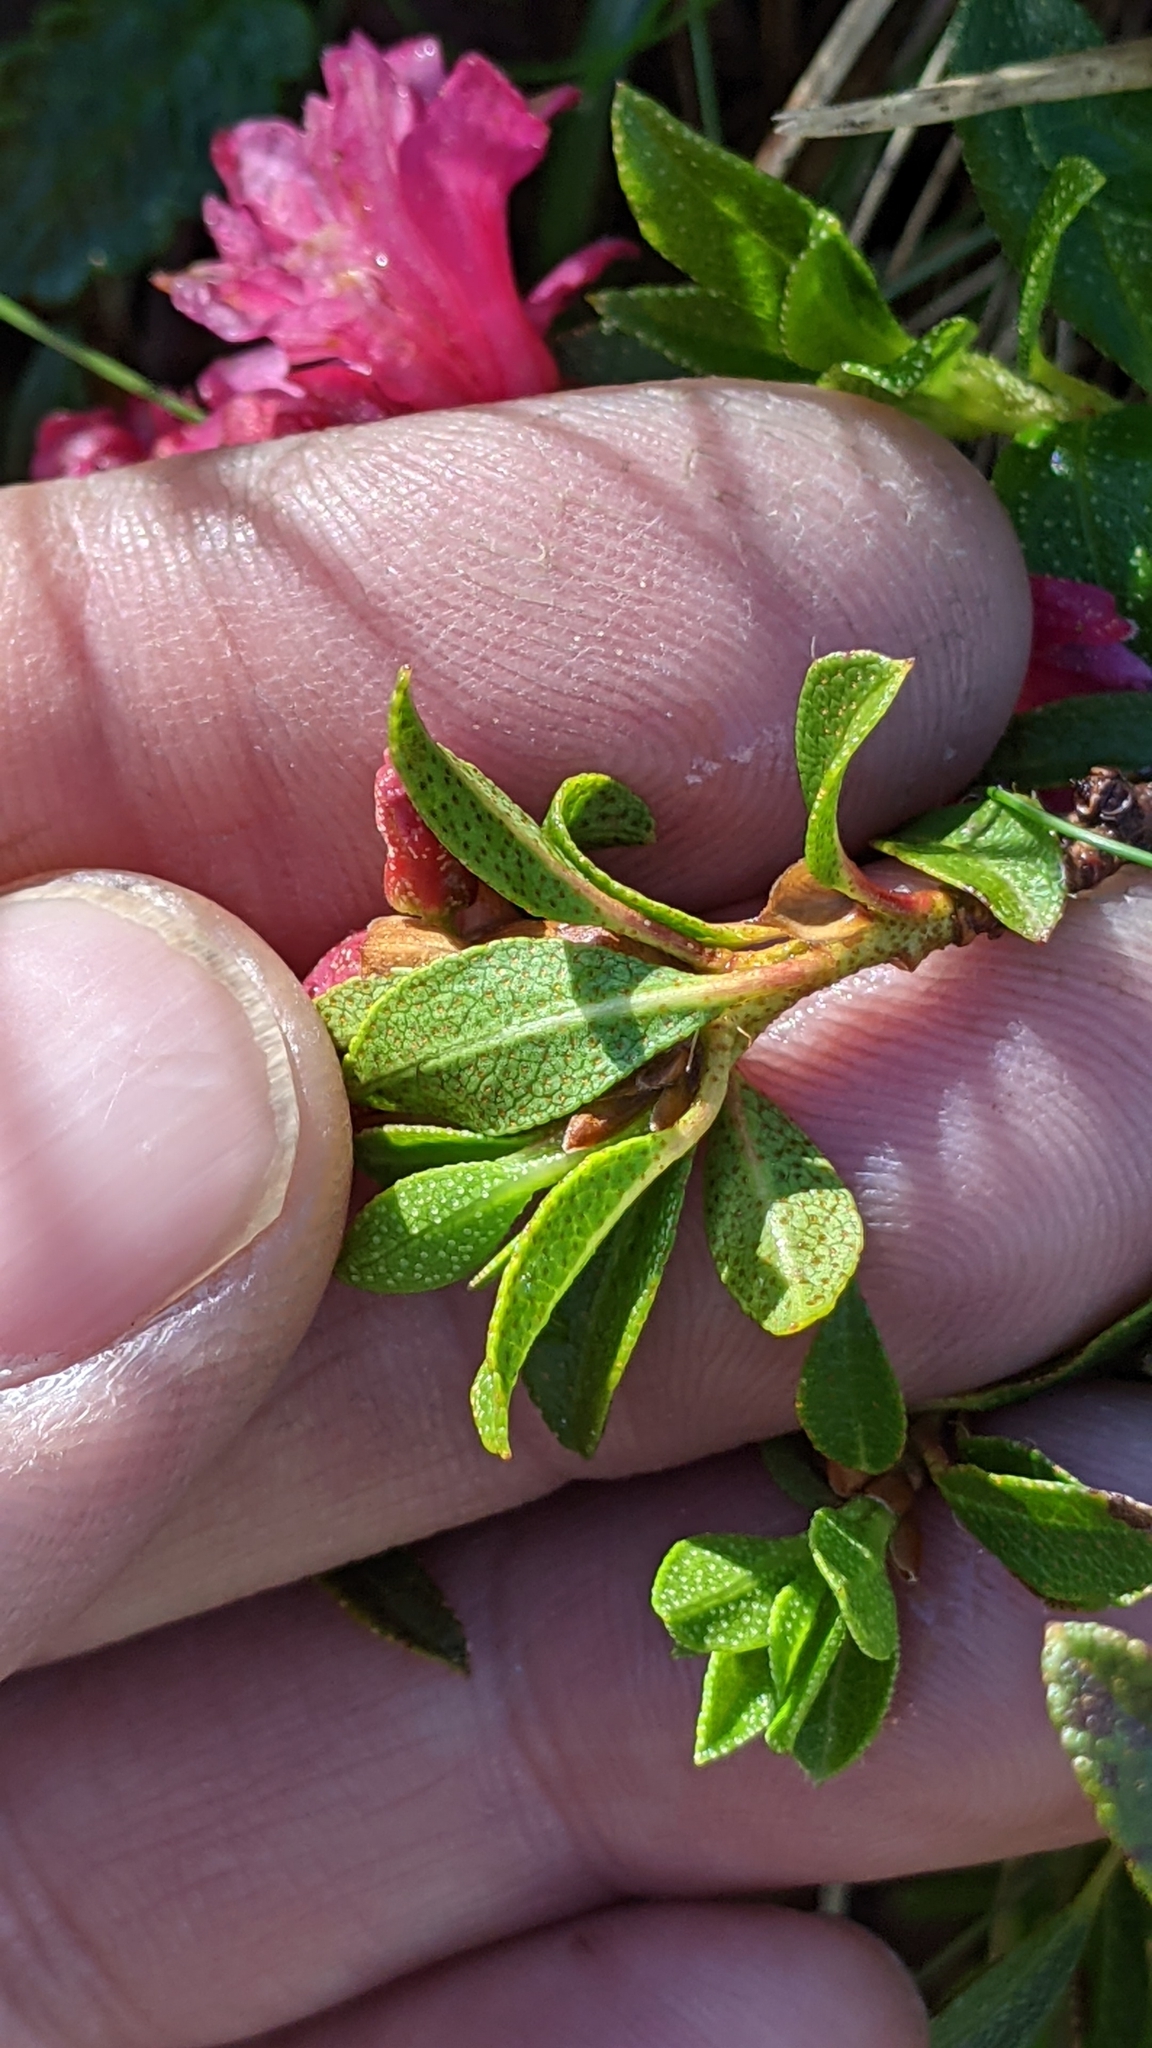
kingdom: Plantae
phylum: Tracheophyta
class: Magnoliopsida
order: Ericales
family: Ericaceae
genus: Rhododendron
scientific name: Rhododendron ferrugineum
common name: Alpenrose
